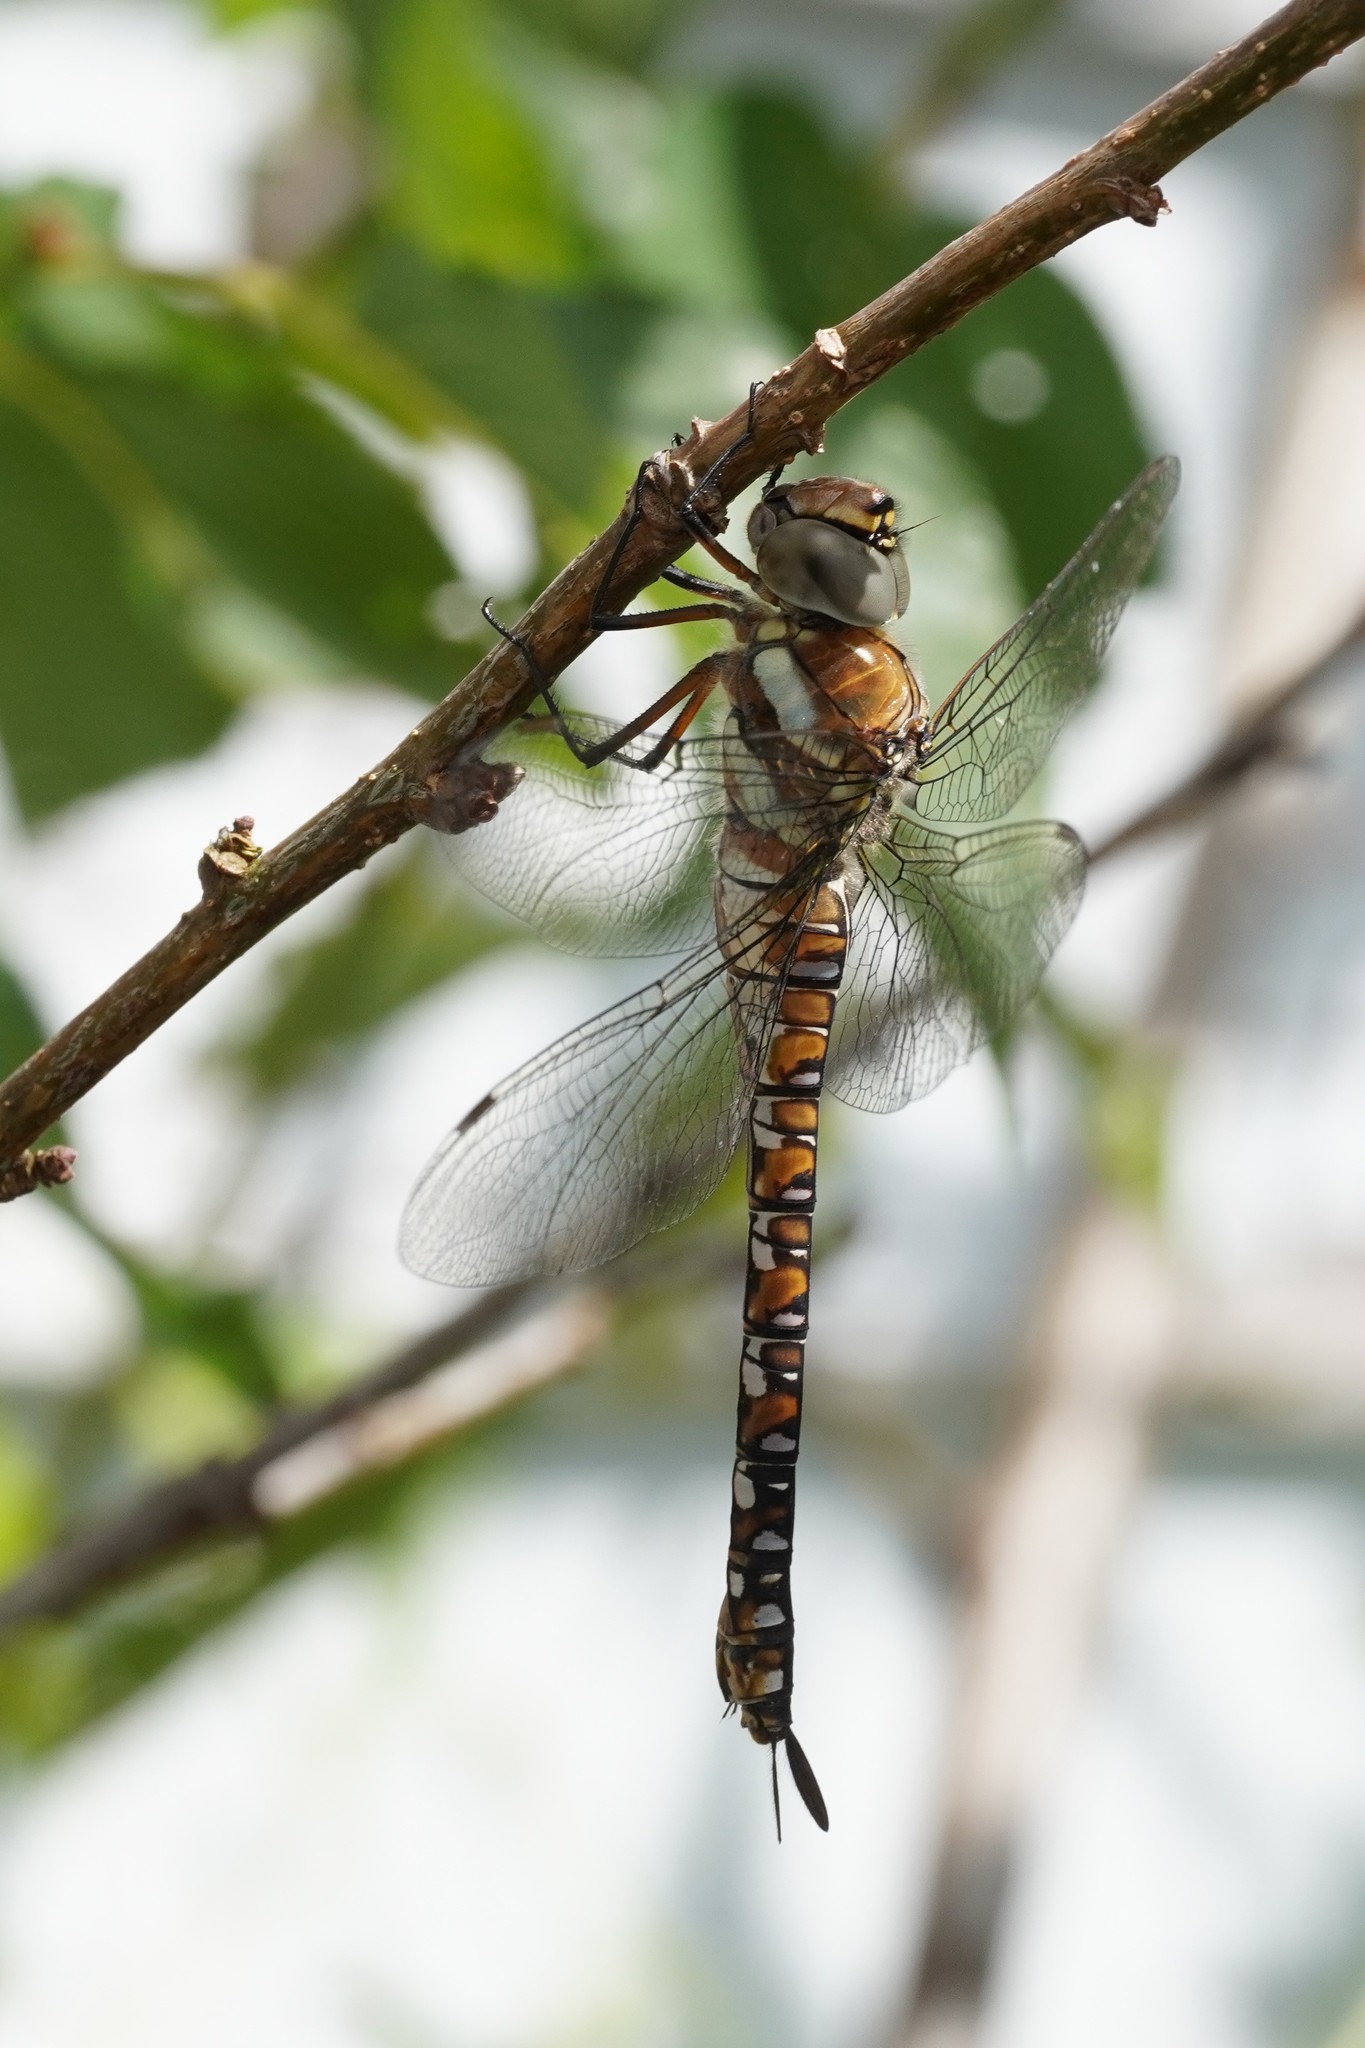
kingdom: Animalia
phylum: Arthropoda
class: Insecta
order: Odonata
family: Aeshnidae
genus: Aeshna
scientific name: Aeshna mixta
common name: Migrant hawker
